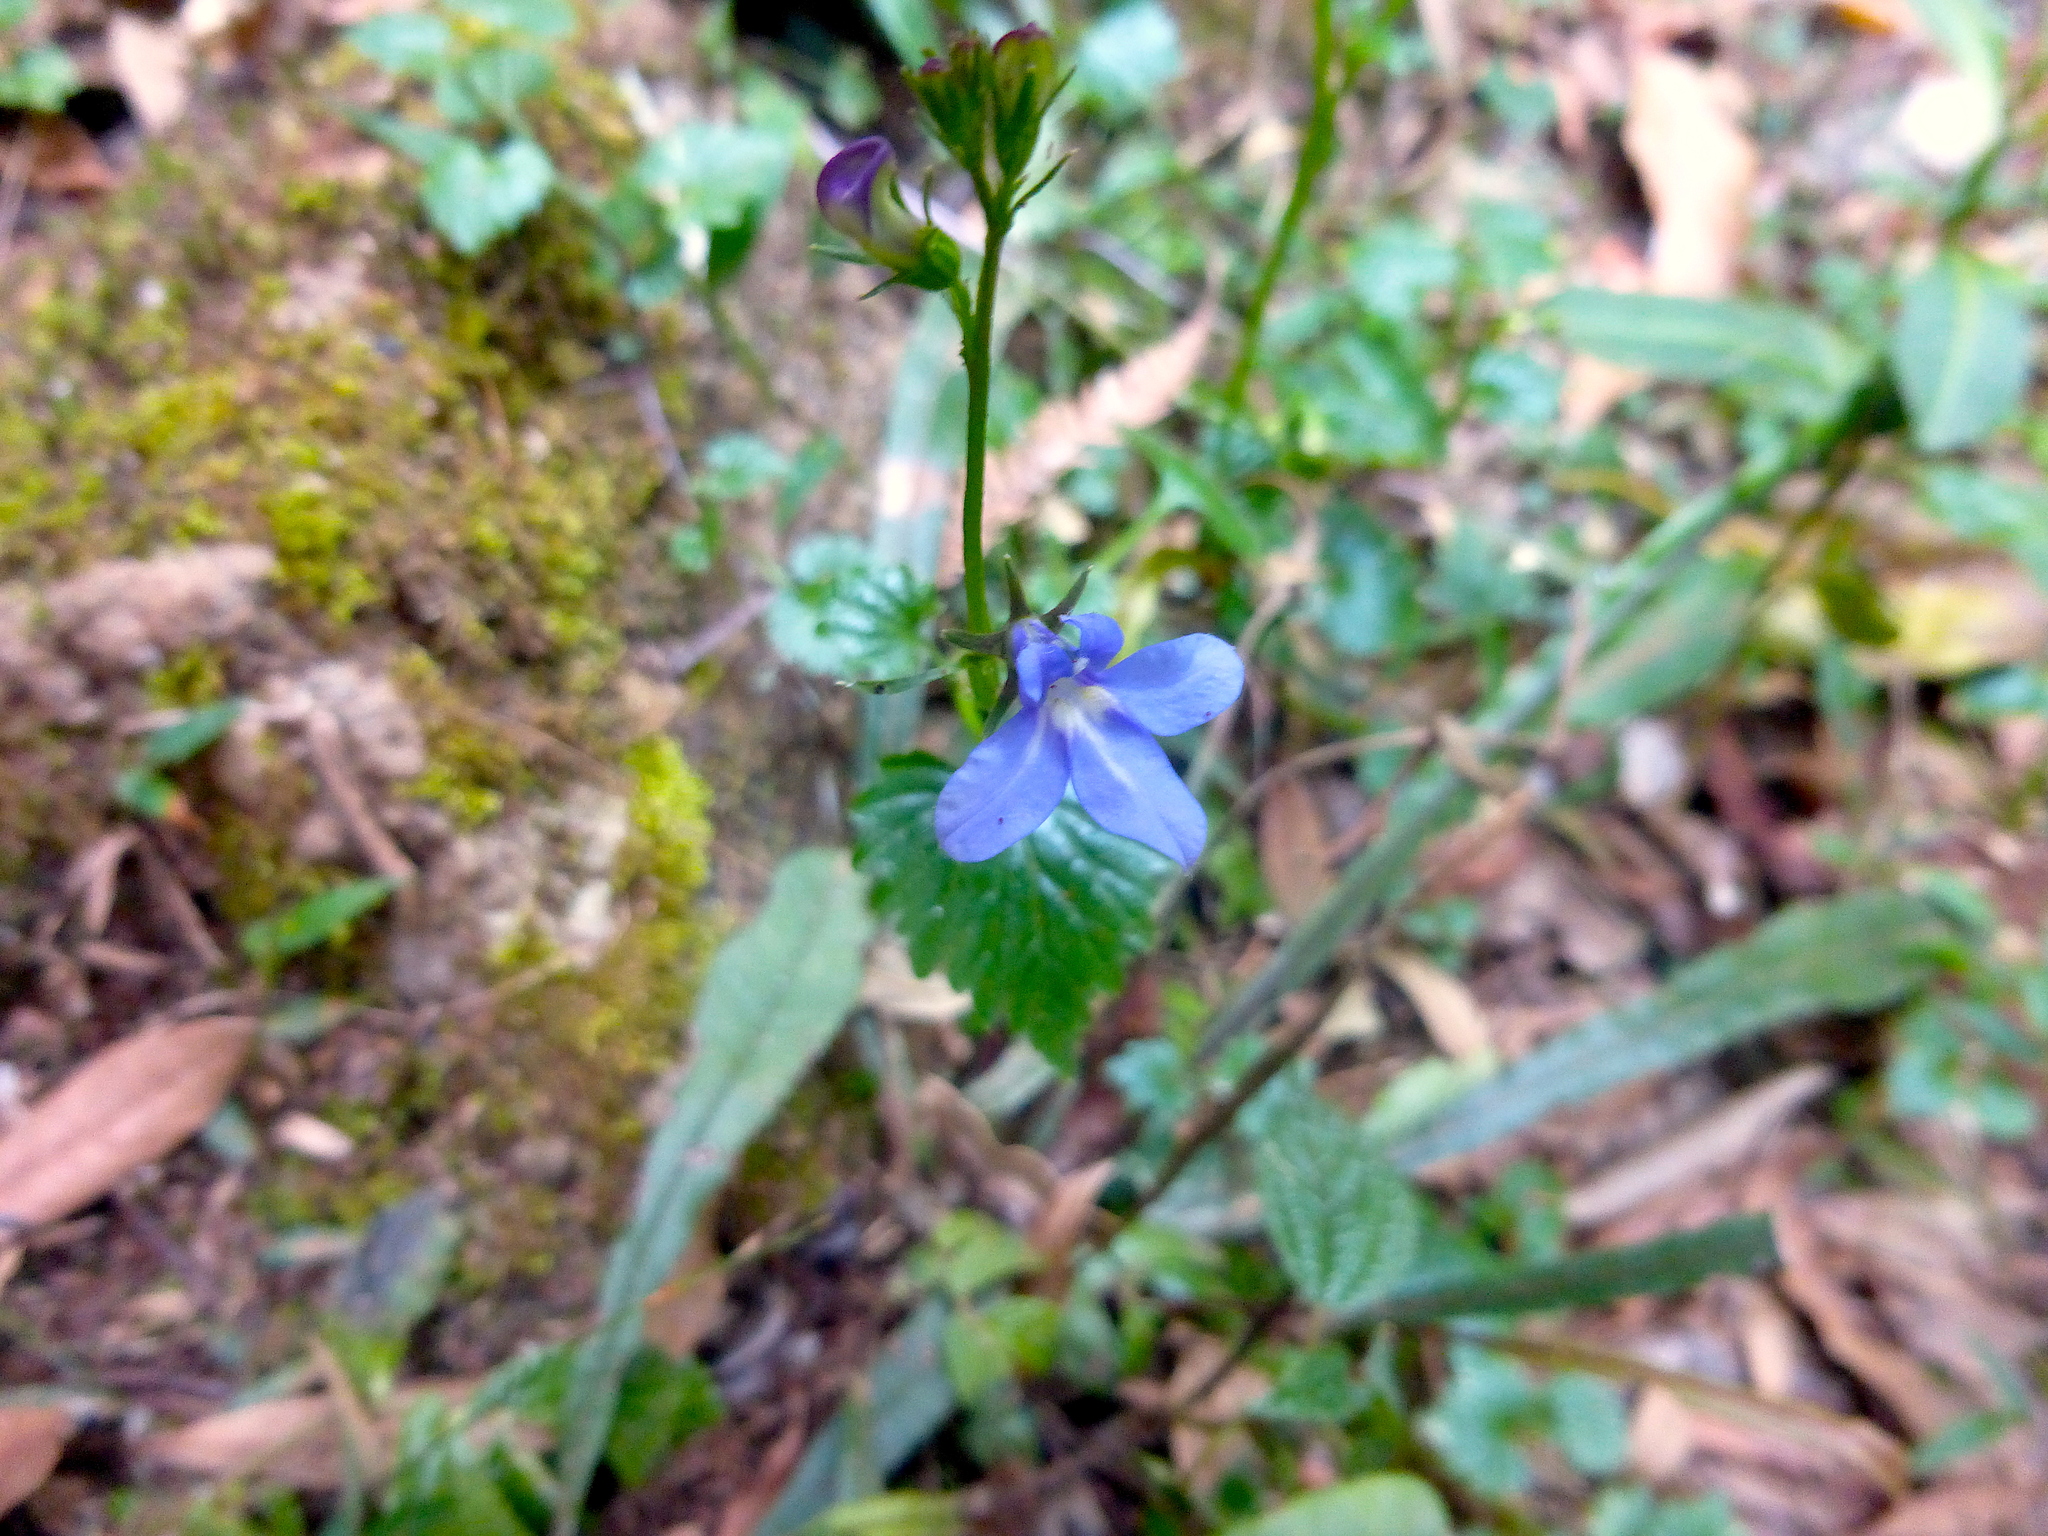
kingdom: Plantae
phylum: Tracheophyta
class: Magnoliopsida
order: Asterales
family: Campanulaceae
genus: Lobelia
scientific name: Lobelia trigonocaulis
